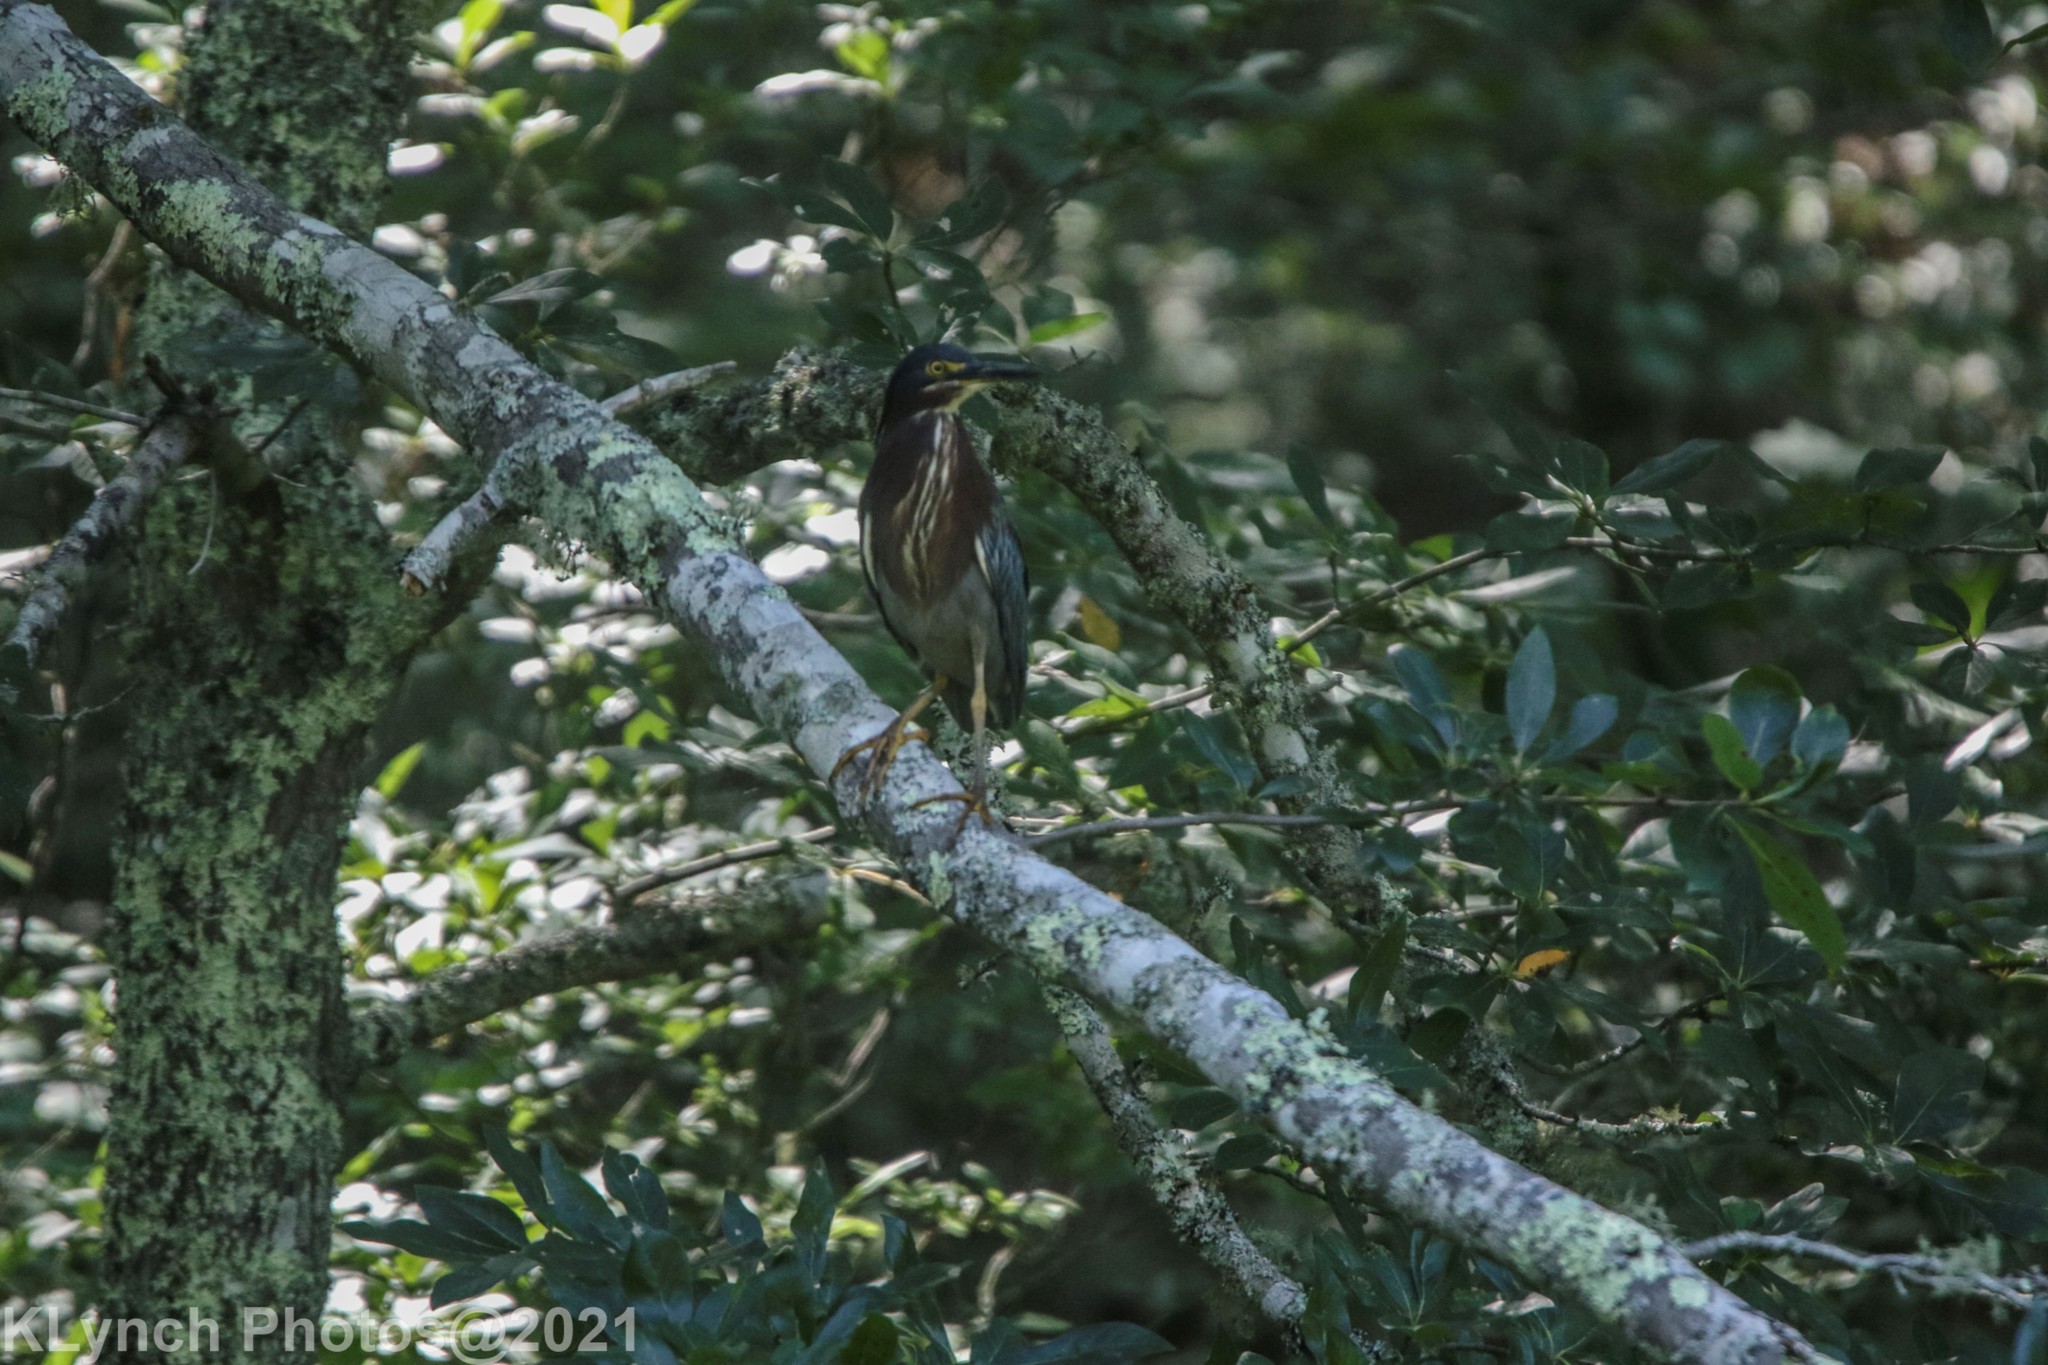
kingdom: Animalia
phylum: Chordata
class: Aves
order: Pelecaniformes
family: Ardeidae
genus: Butorides
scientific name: Butorides virescens
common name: Green heron
